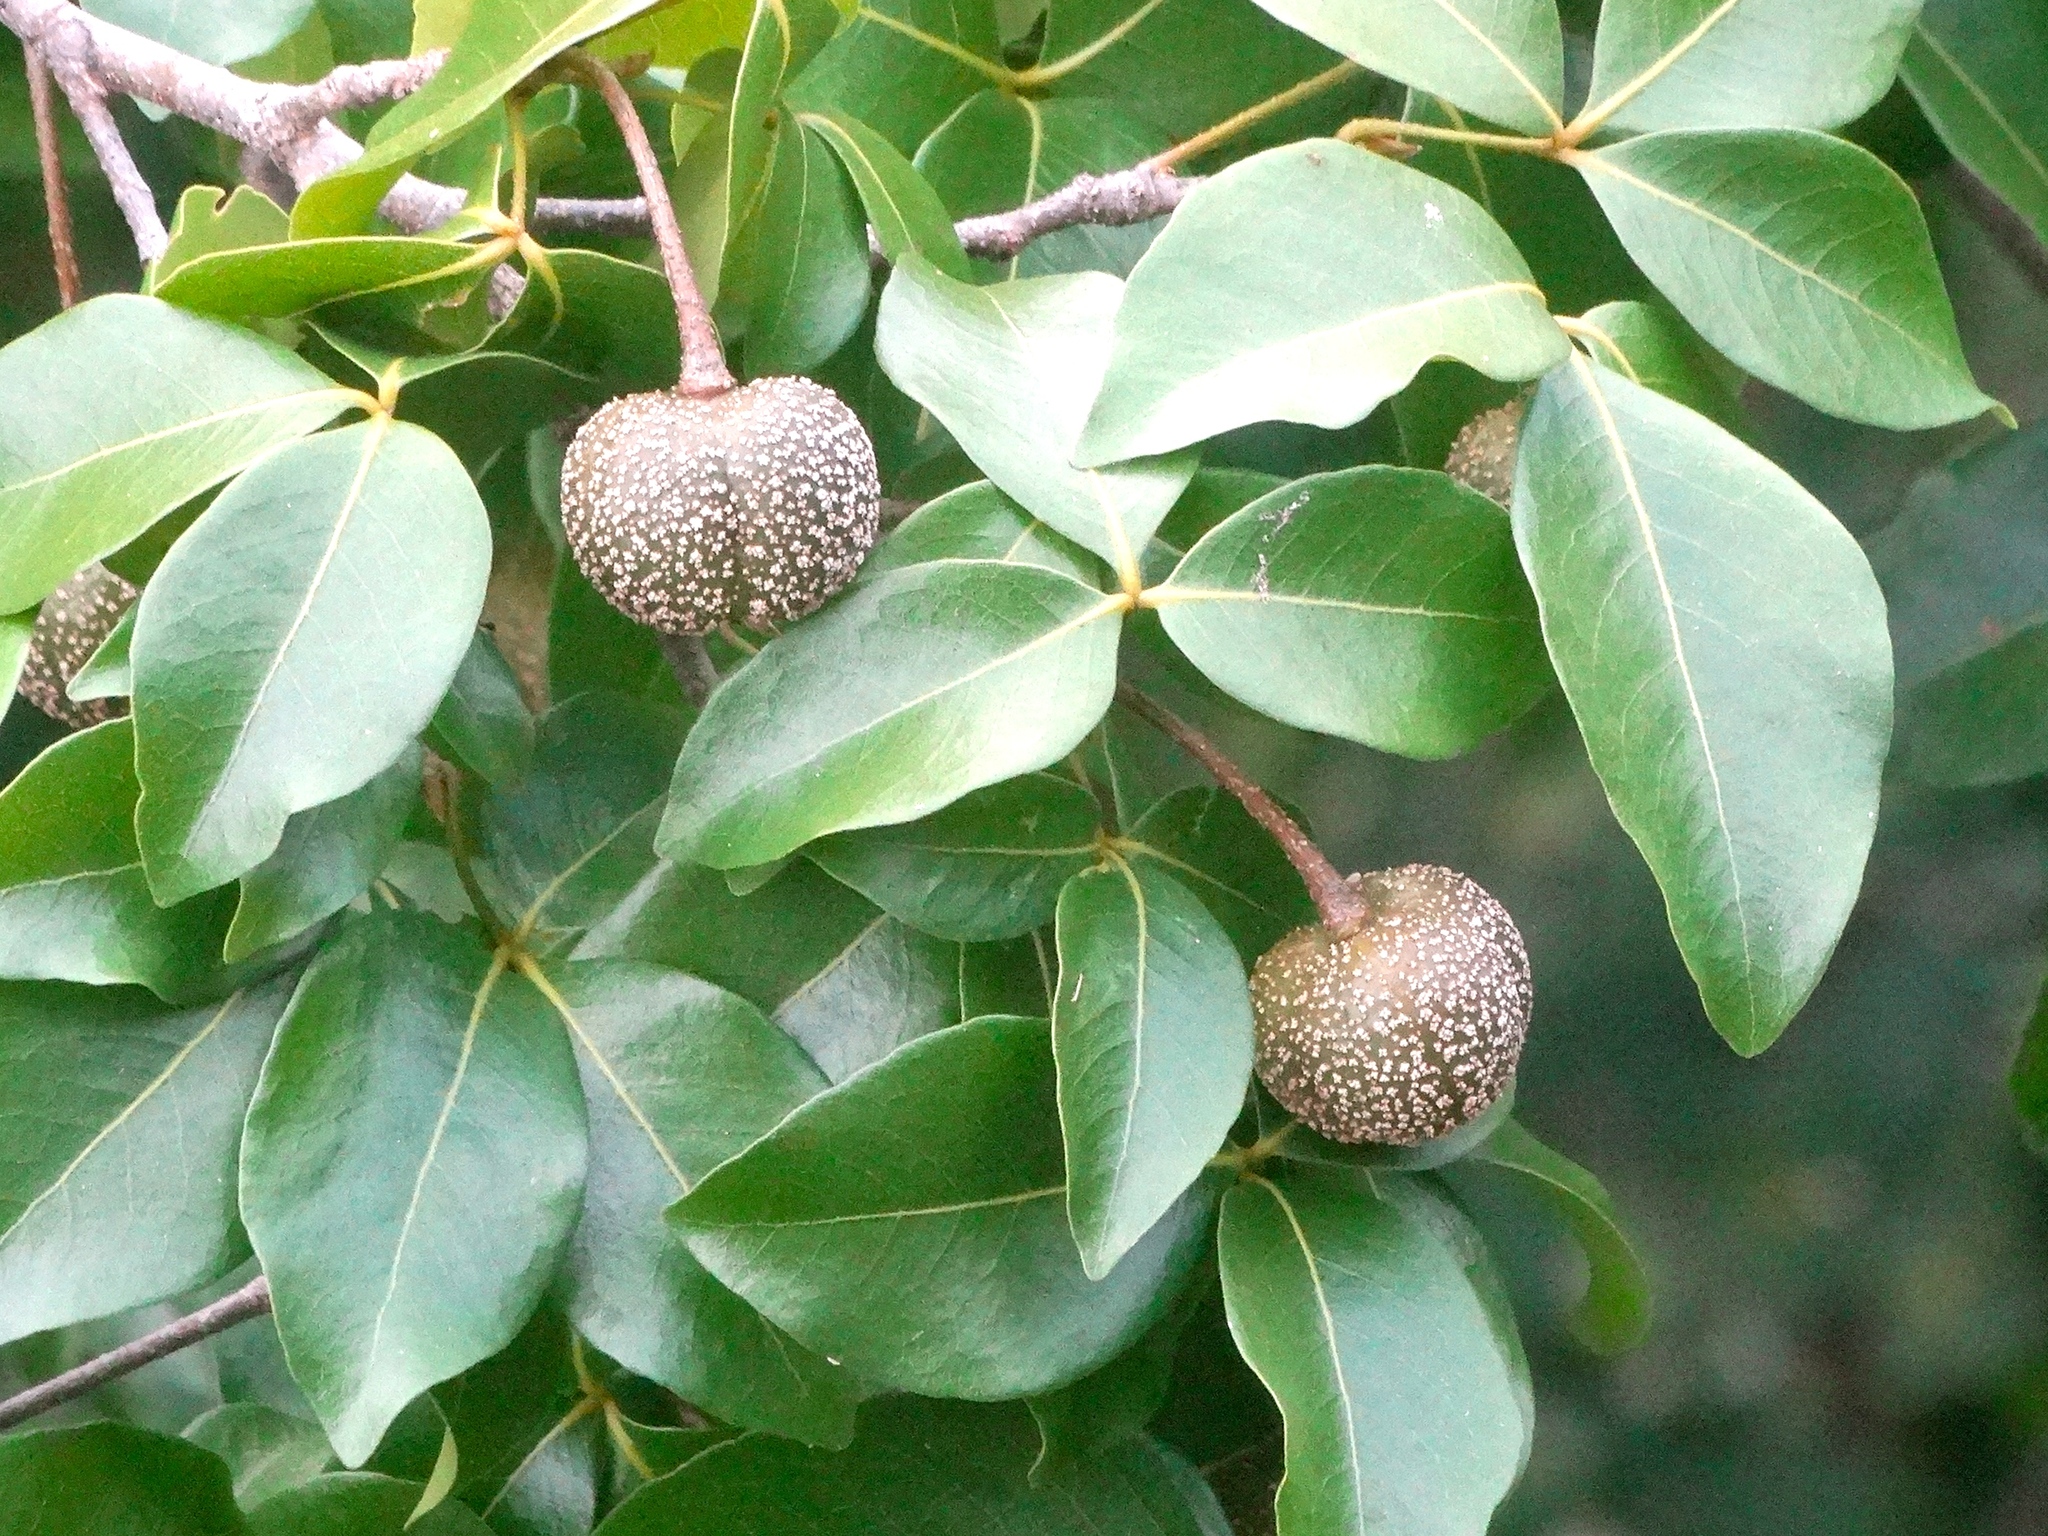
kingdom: Plantae
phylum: Tracheophyta
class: Magnoliopsida
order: Malpighiales
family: Picrodendraceae
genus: Piranhea
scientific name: Piranhea mexicana
